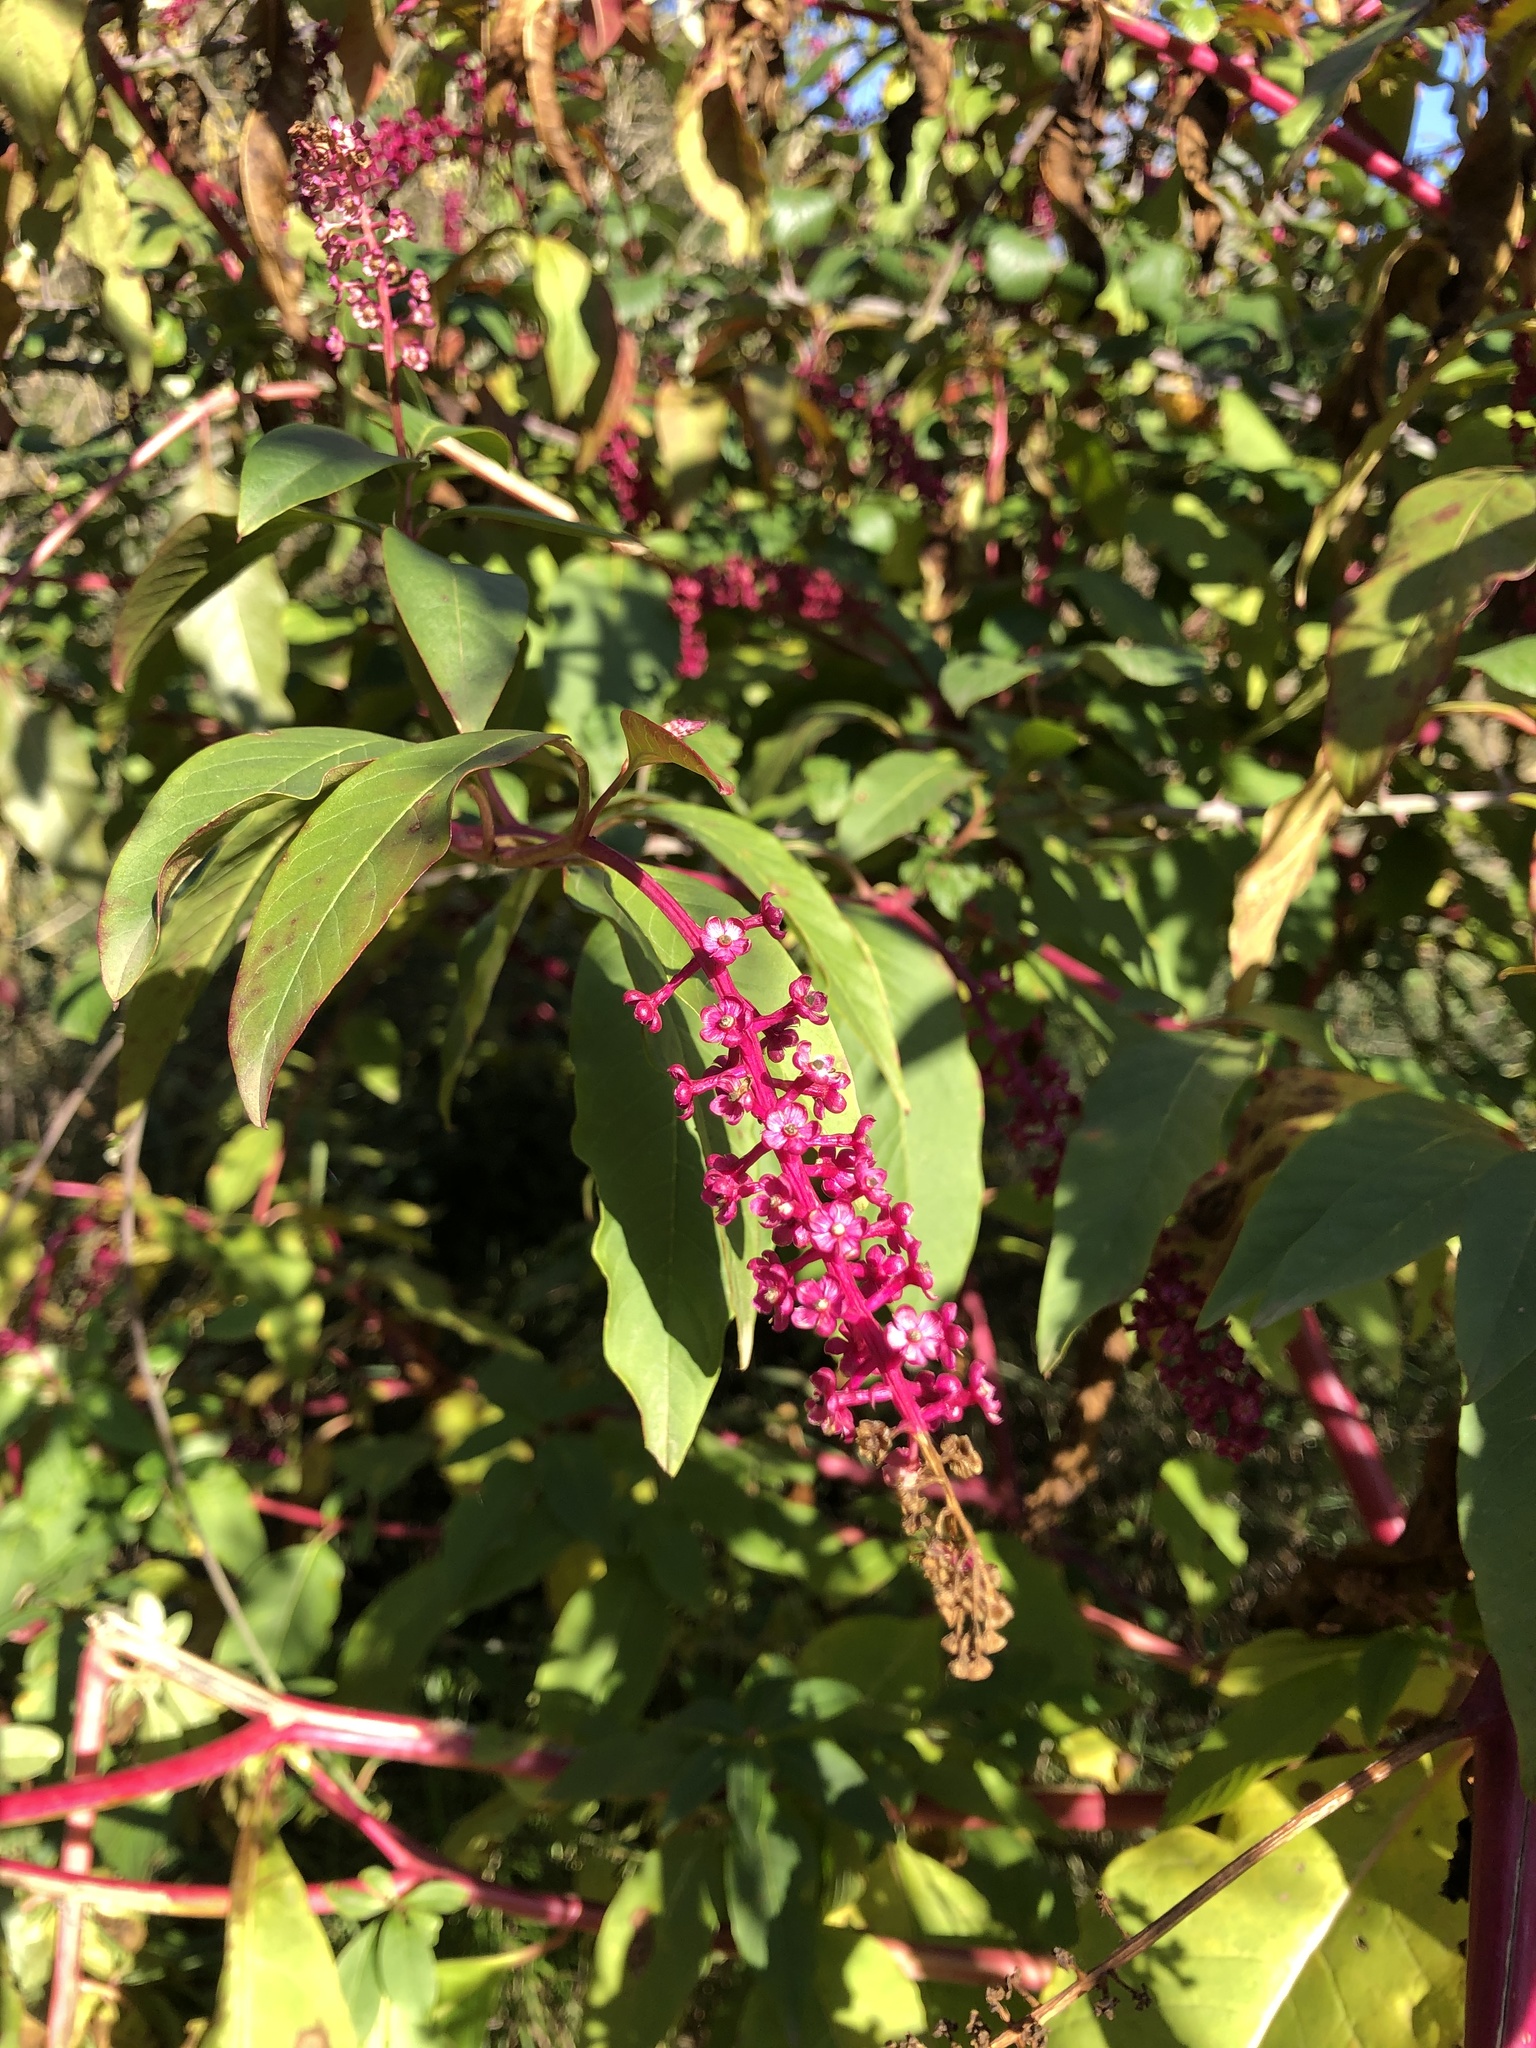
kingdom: Plantae
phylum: Tracheophyta
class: Magnoliopsida
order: Caryophyllales
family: Phytolaccaceae
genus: Phytolacca
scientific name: Phytolacca americana
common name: American pokeweed
